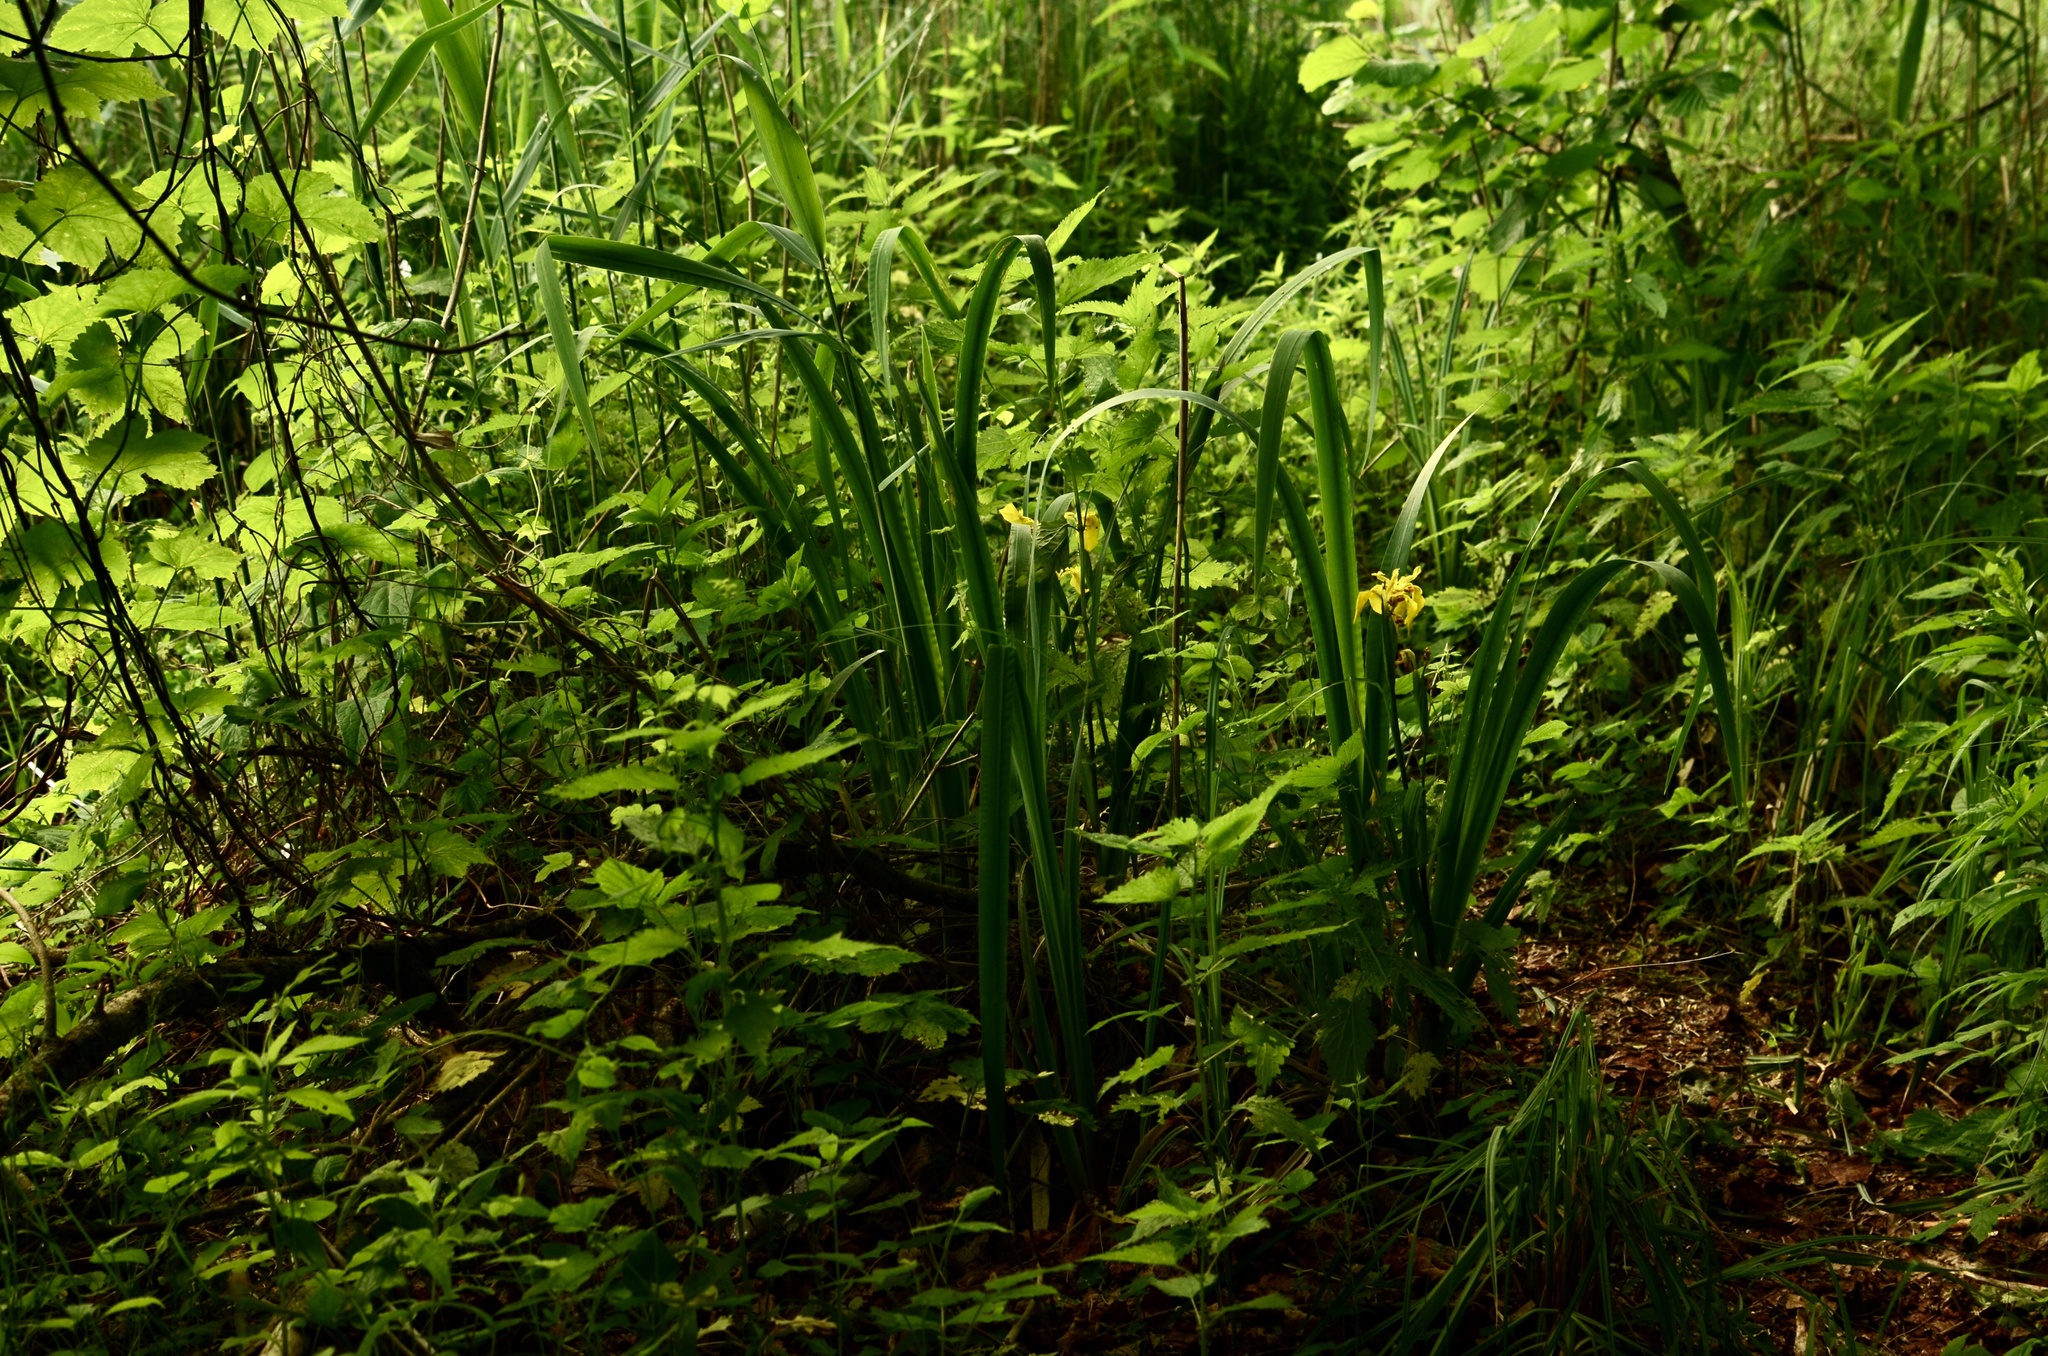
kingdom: Plantae
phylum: Tracheophyta
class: Liliopsida
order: Asparagales
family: Iridaceae
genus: Iris
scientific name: Iris pseudacorus
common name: Yellow flag
